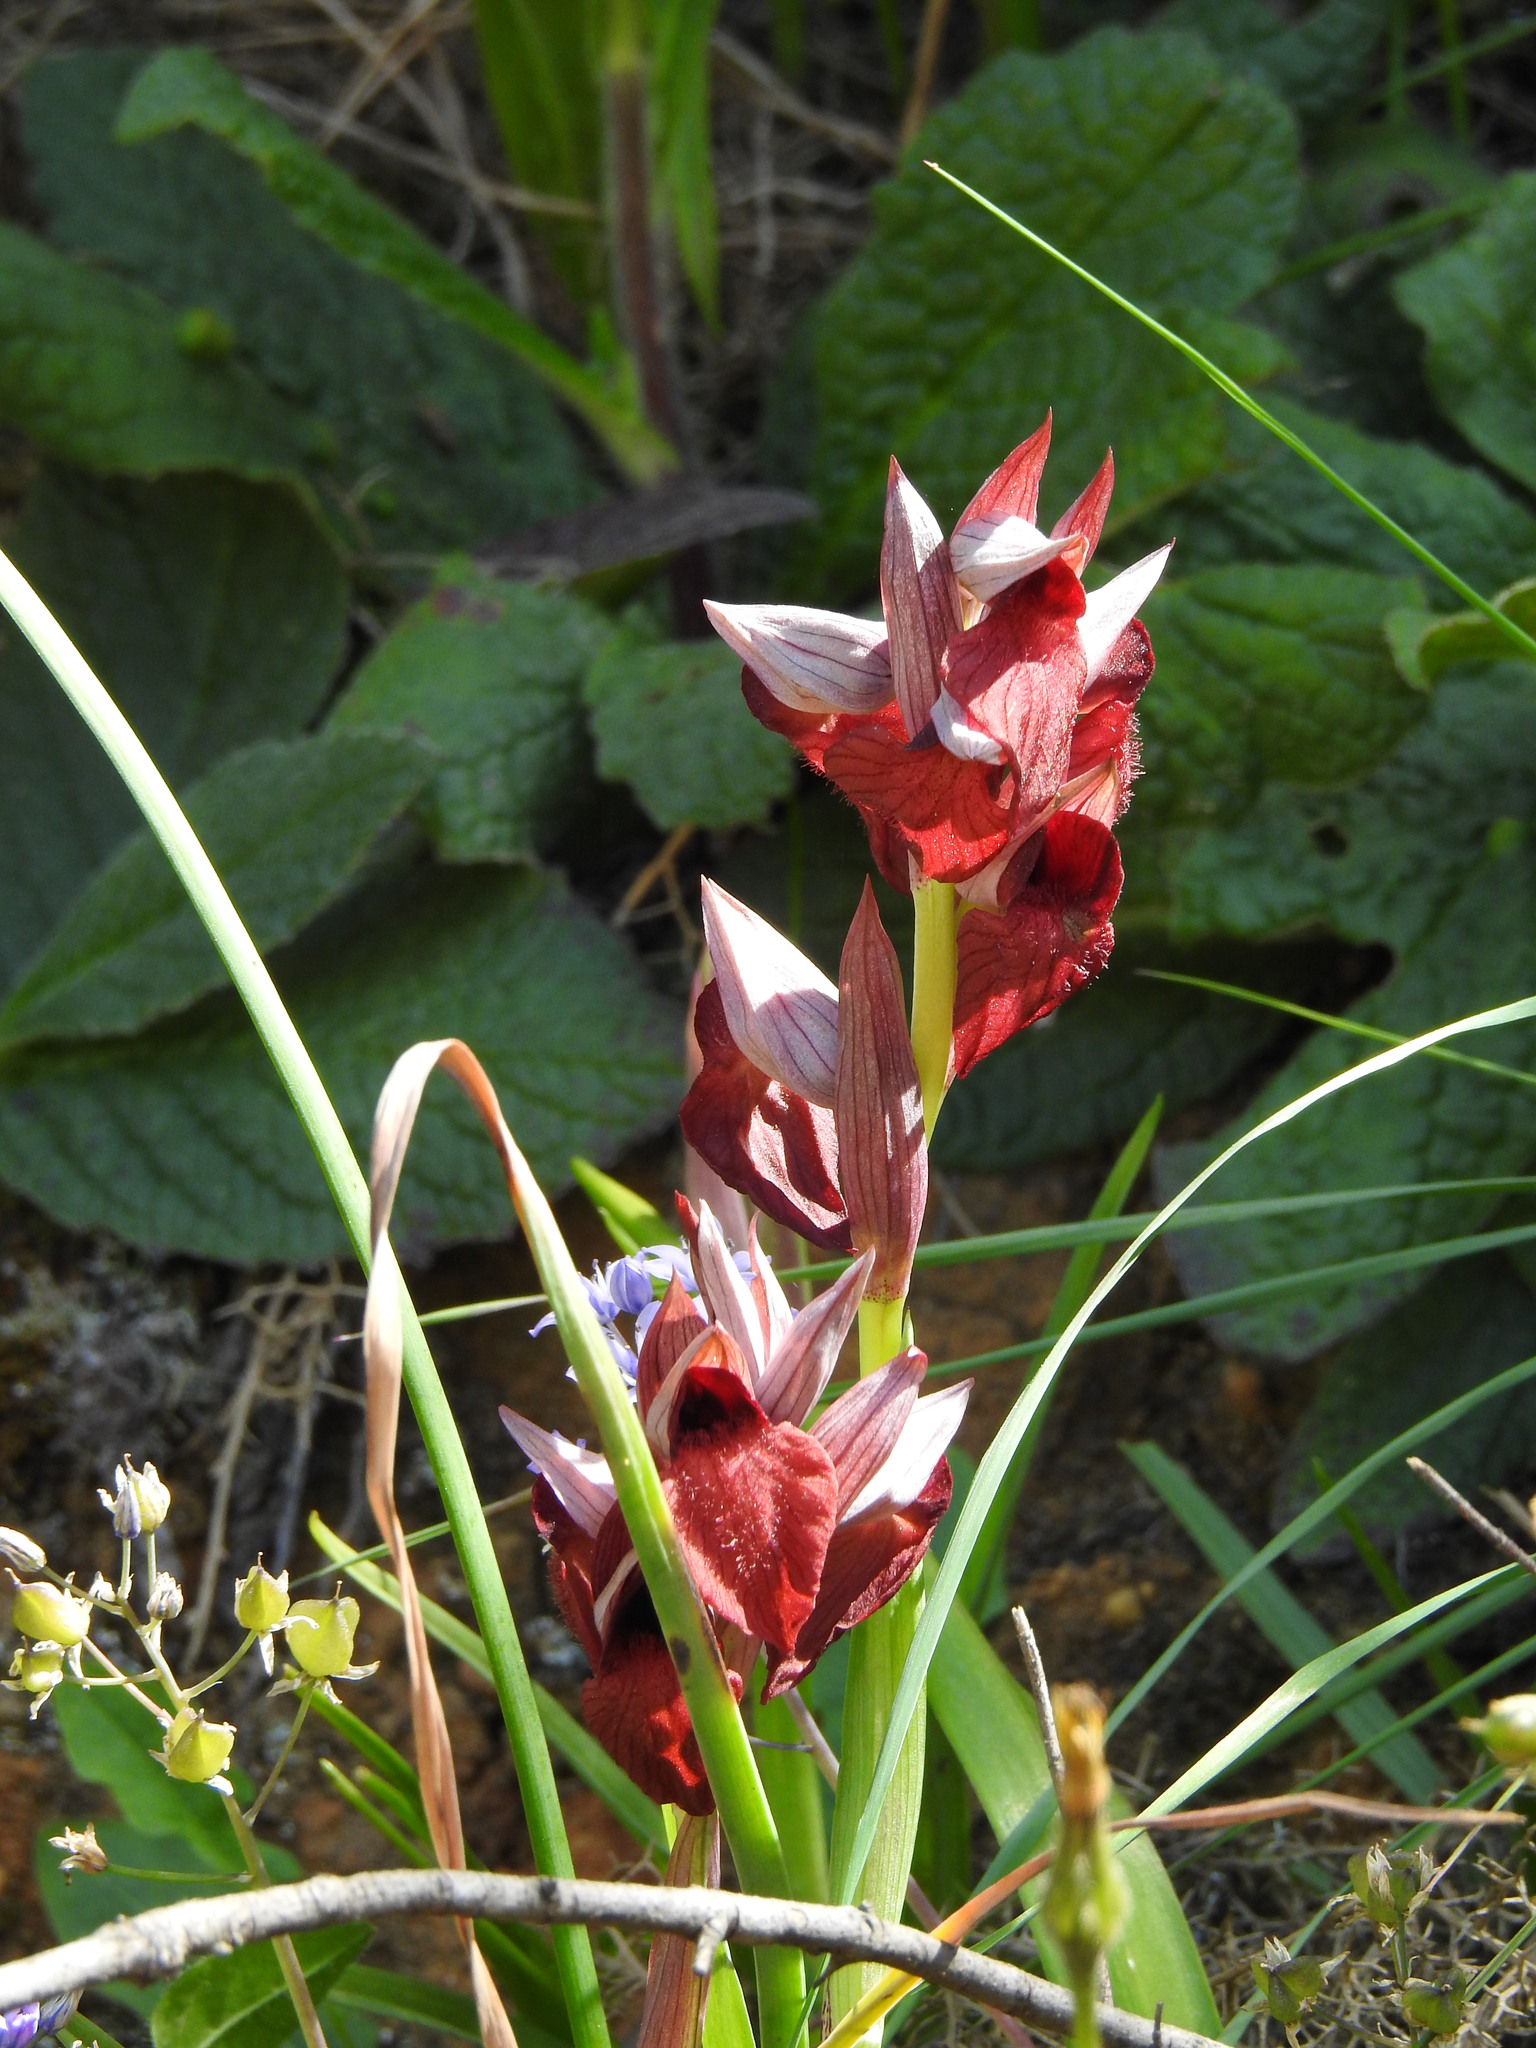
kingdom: Plantae
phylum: Tracheophyta
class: Liliopsida
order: Asparagales
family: Orchidaceae
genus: Serapias
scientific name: Serapias cordigera
